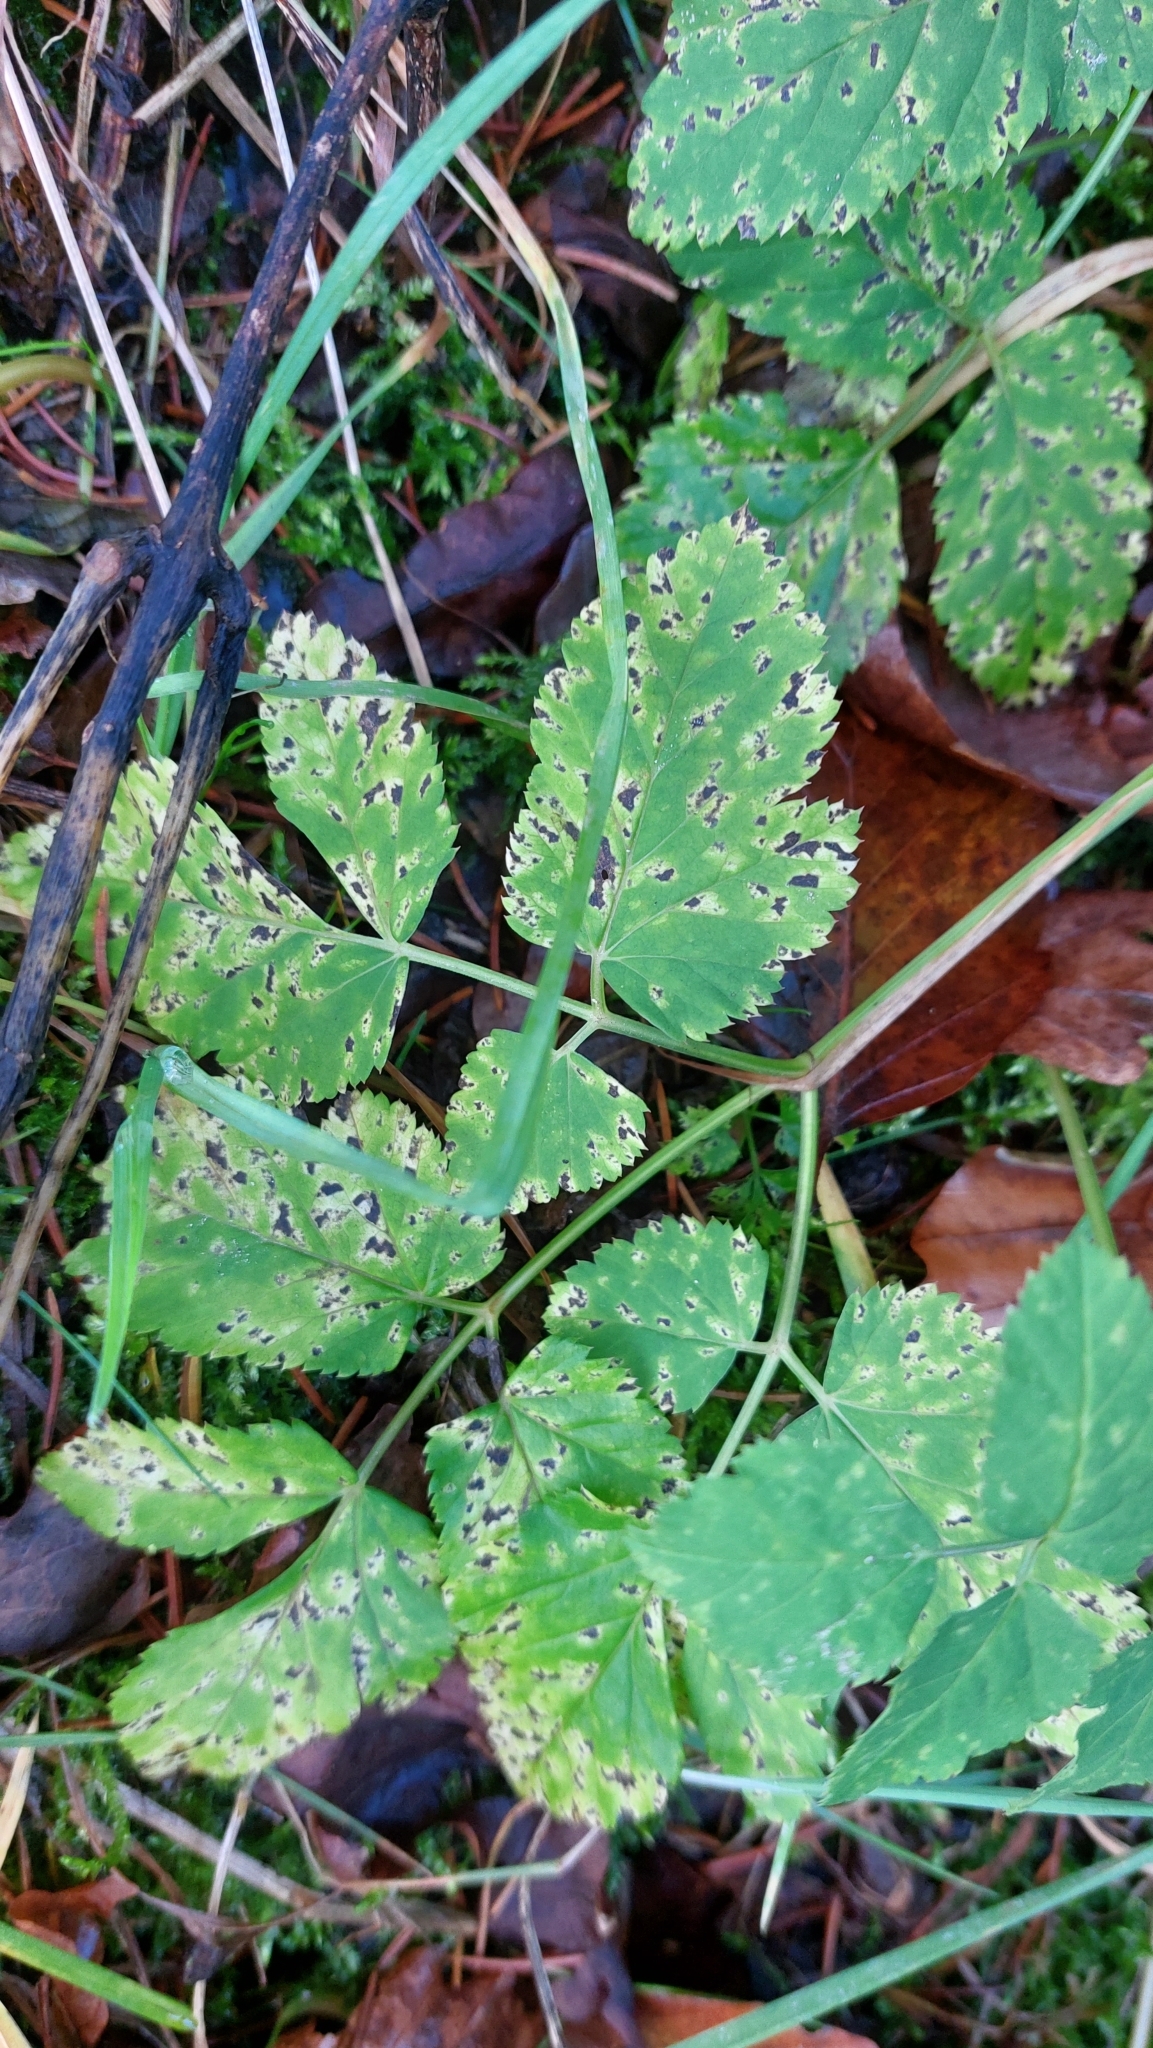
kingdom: Plantae
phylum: Tracheophyta
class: Magnoliopsida
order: Apiales
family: Apiaceae
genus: Aegopodium
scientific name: Aegopodium podagraria
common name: Ground-elder
